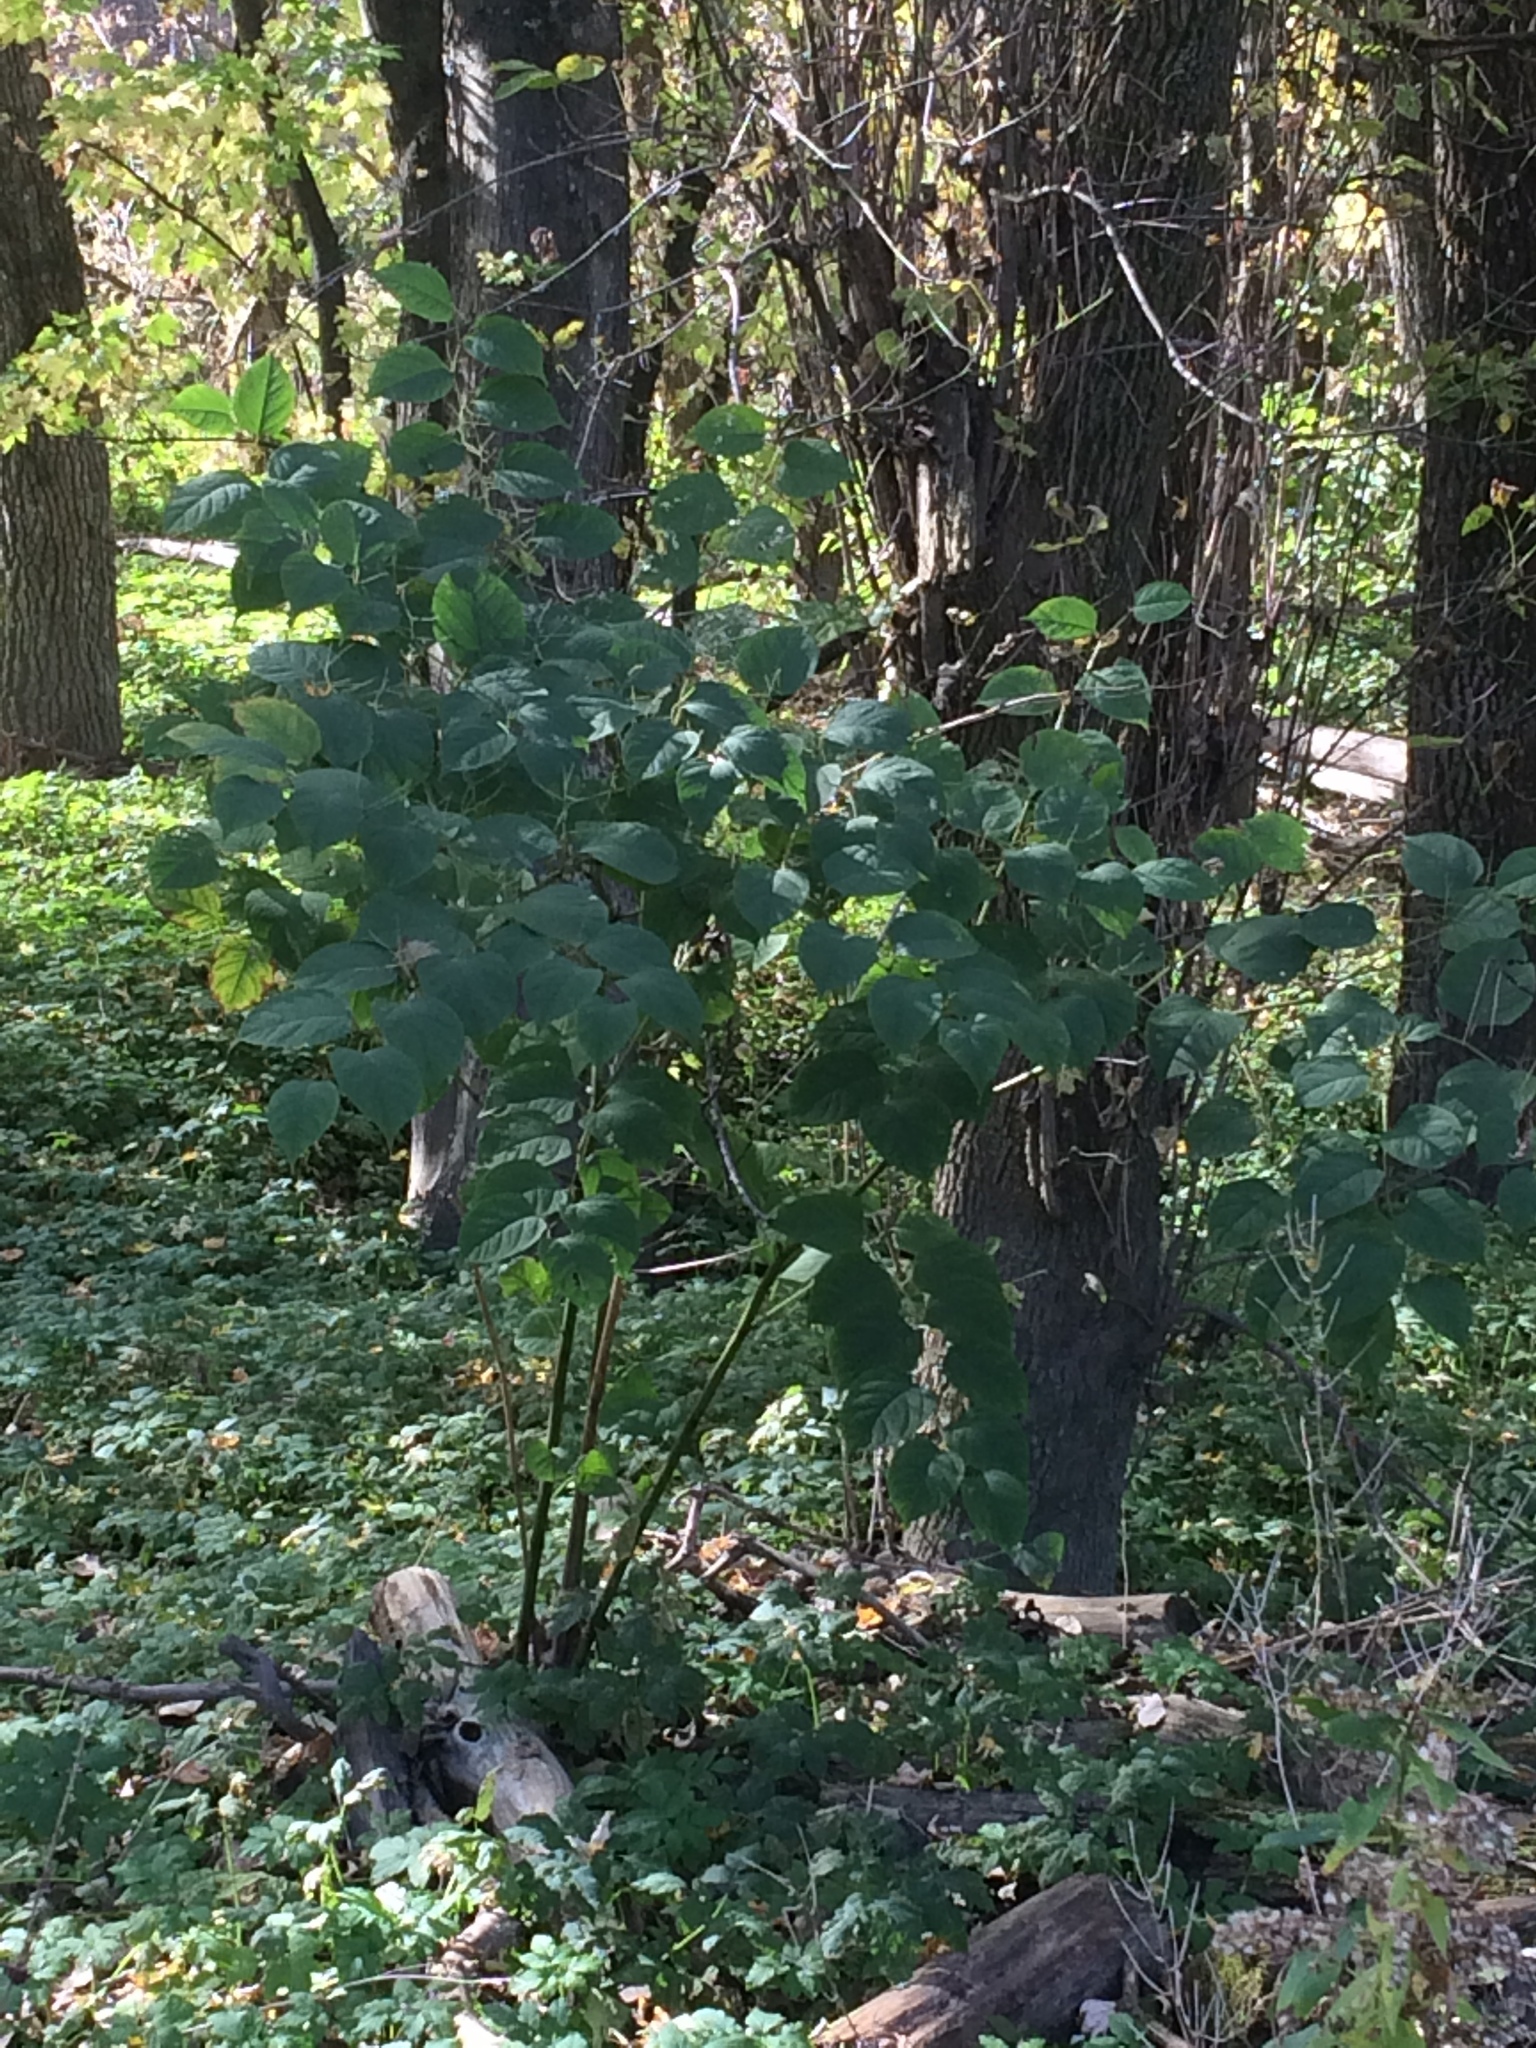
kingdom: Plantae
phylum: Tracheophyta
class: Magnoliopsida
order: Caryophyllales
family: Polygonaceae
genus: Reynoutria
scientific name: Reynoutria japonica
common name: Japanese knotweed
